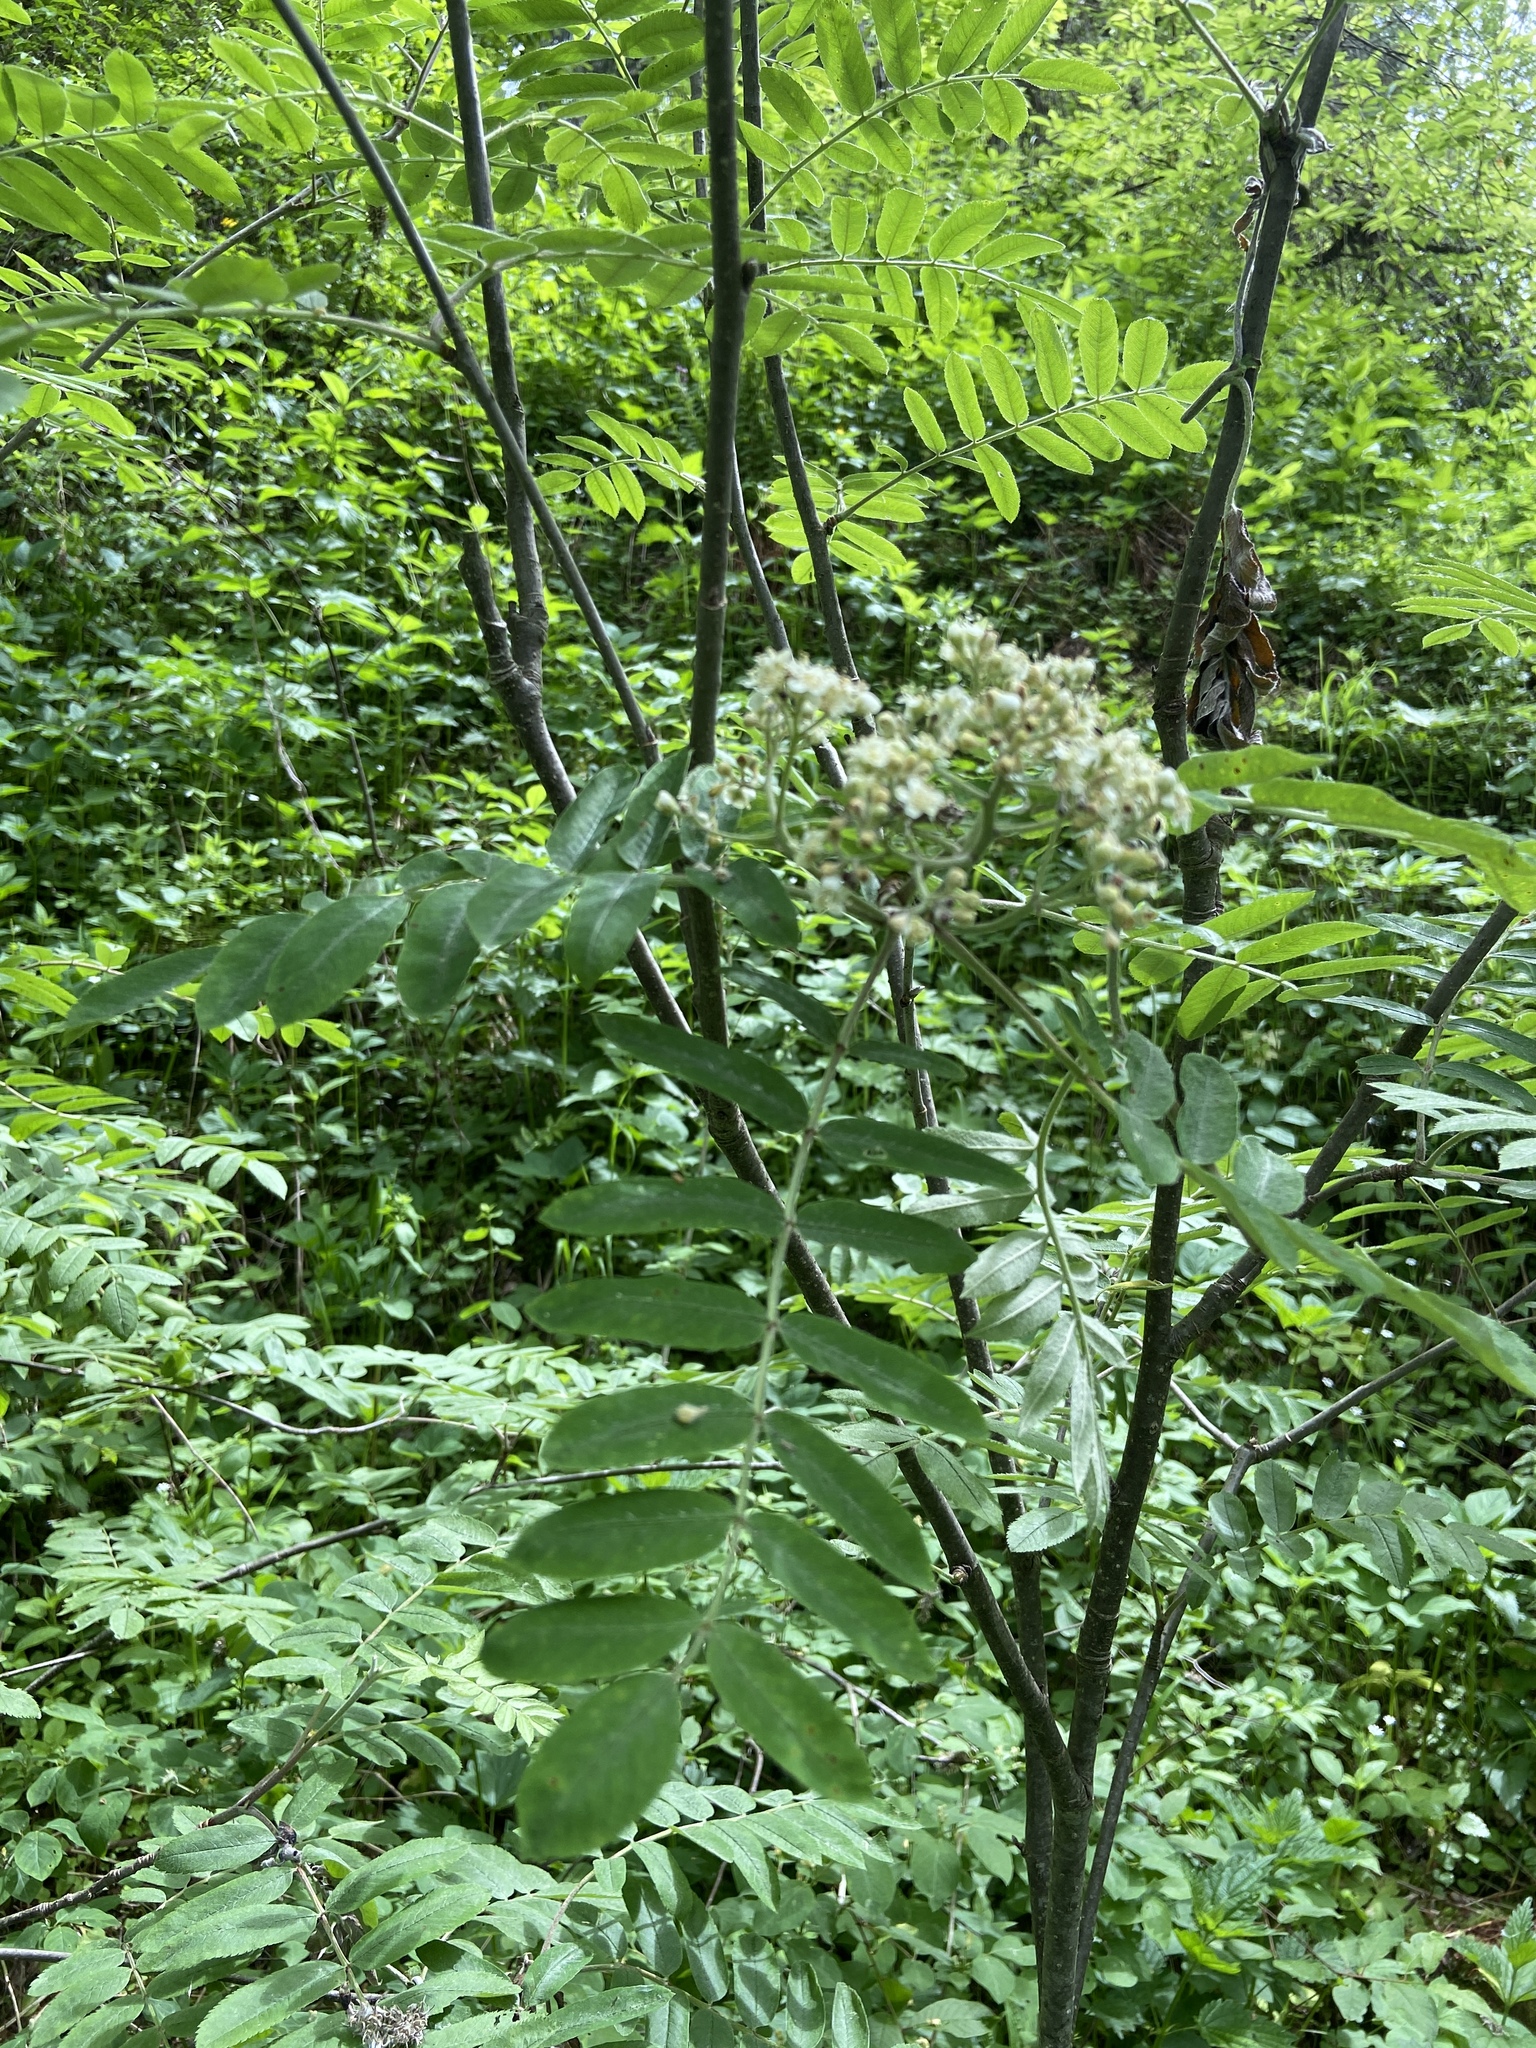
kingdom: Plantae
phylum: Tracheophyta
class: Magnoliopsida
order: Rosales
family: Rosaceae
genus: Sorbus
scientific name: Sorbus aucuparia
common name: Rowan
